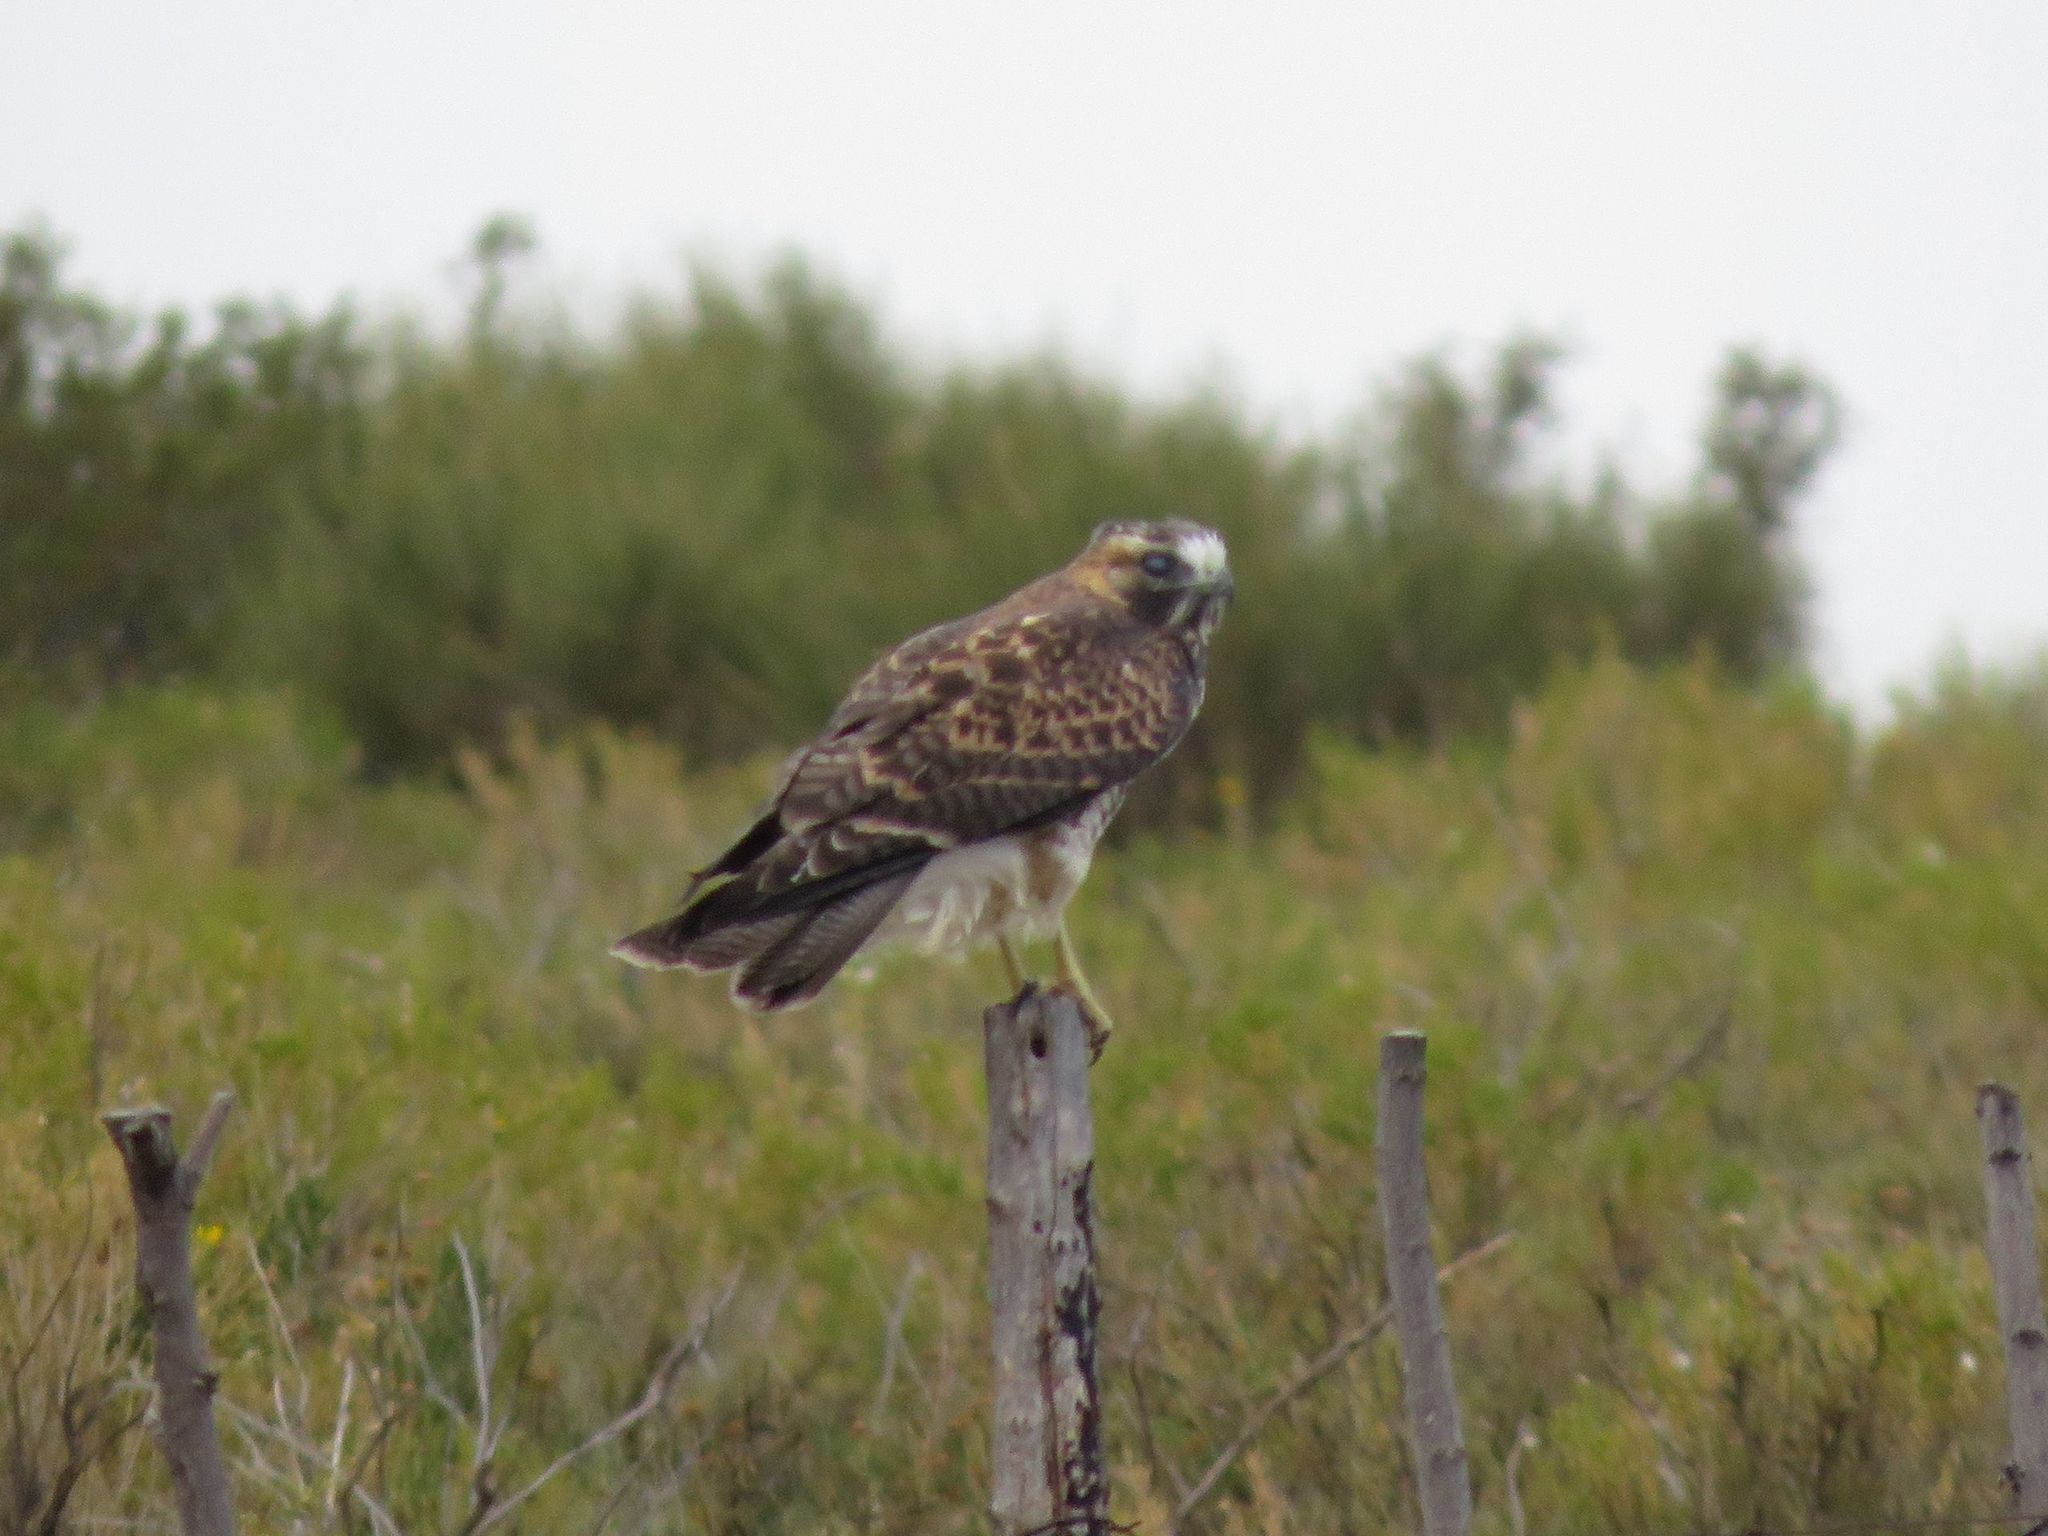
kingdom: Animalia
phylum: Chordata
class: Aves
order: Accipitriformes
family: Accipitridae
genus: Buteo
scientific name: Buteo polyosoma
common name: Variable hawk
